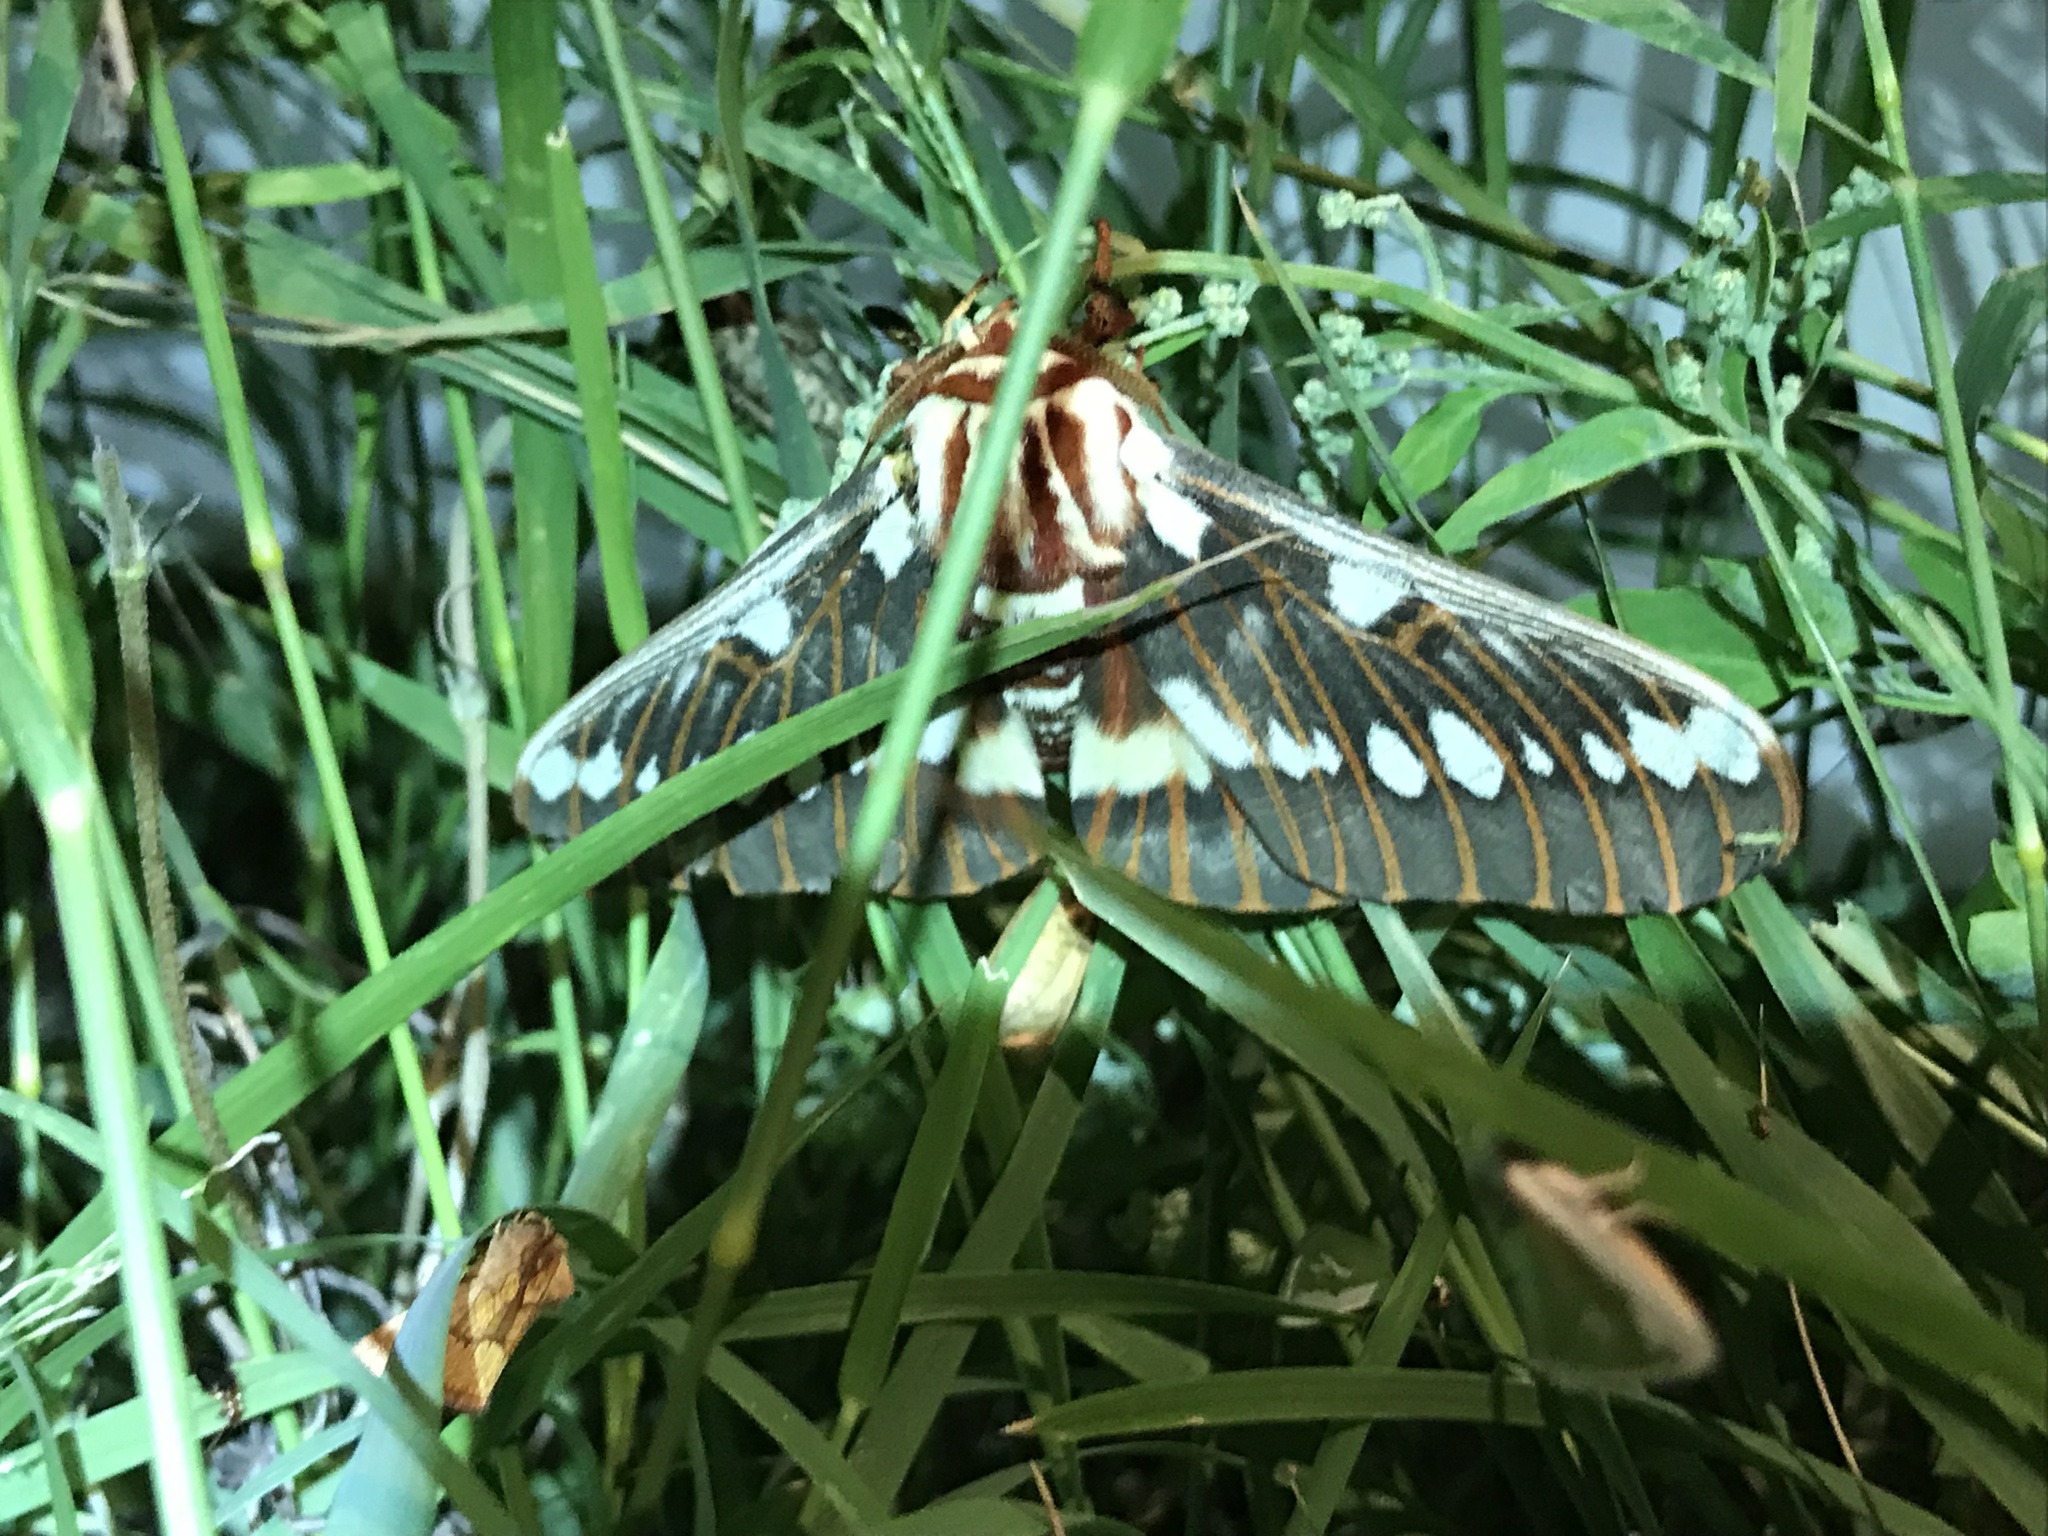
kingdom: Animalia
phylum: Arthropoda
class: Insecta
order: Lepidoptera
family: Saturniidae
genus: Citheronia
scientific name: Citheronia splendens
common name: Splendid royal moth
